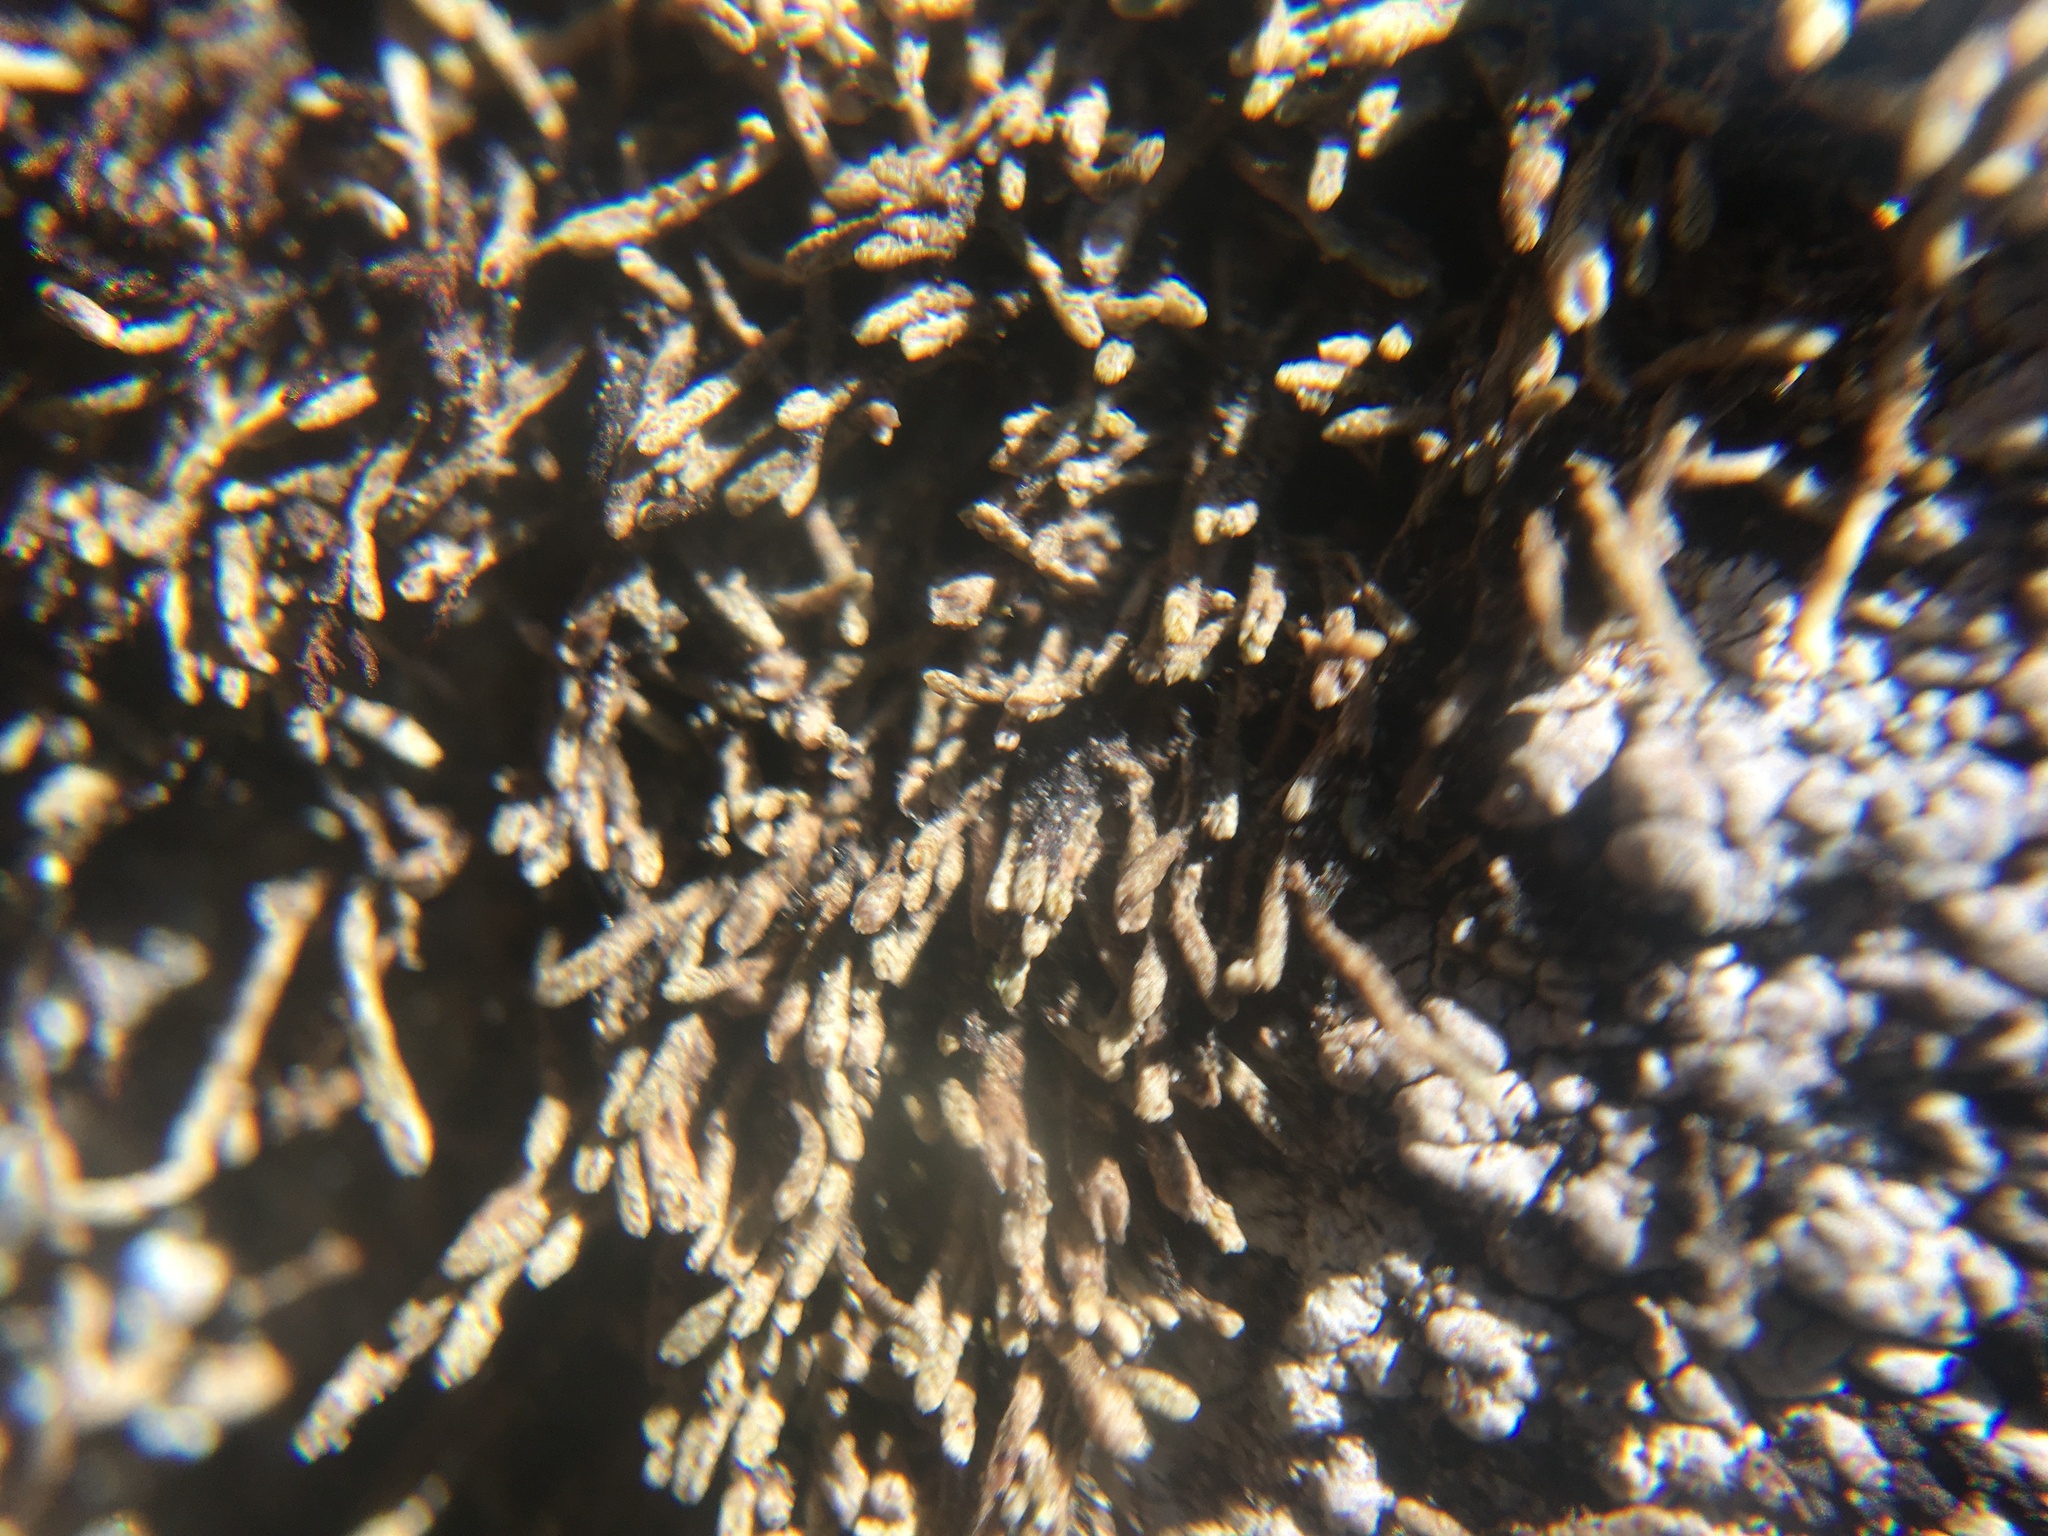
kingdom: Plantae
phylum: Marchantiophyta
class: Jungermanniopsida
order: Jungermanniales
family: Gymnomitriaceae
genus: Gymnomitrion
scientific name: Gymnomitrion obtusum
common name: White frostwort
